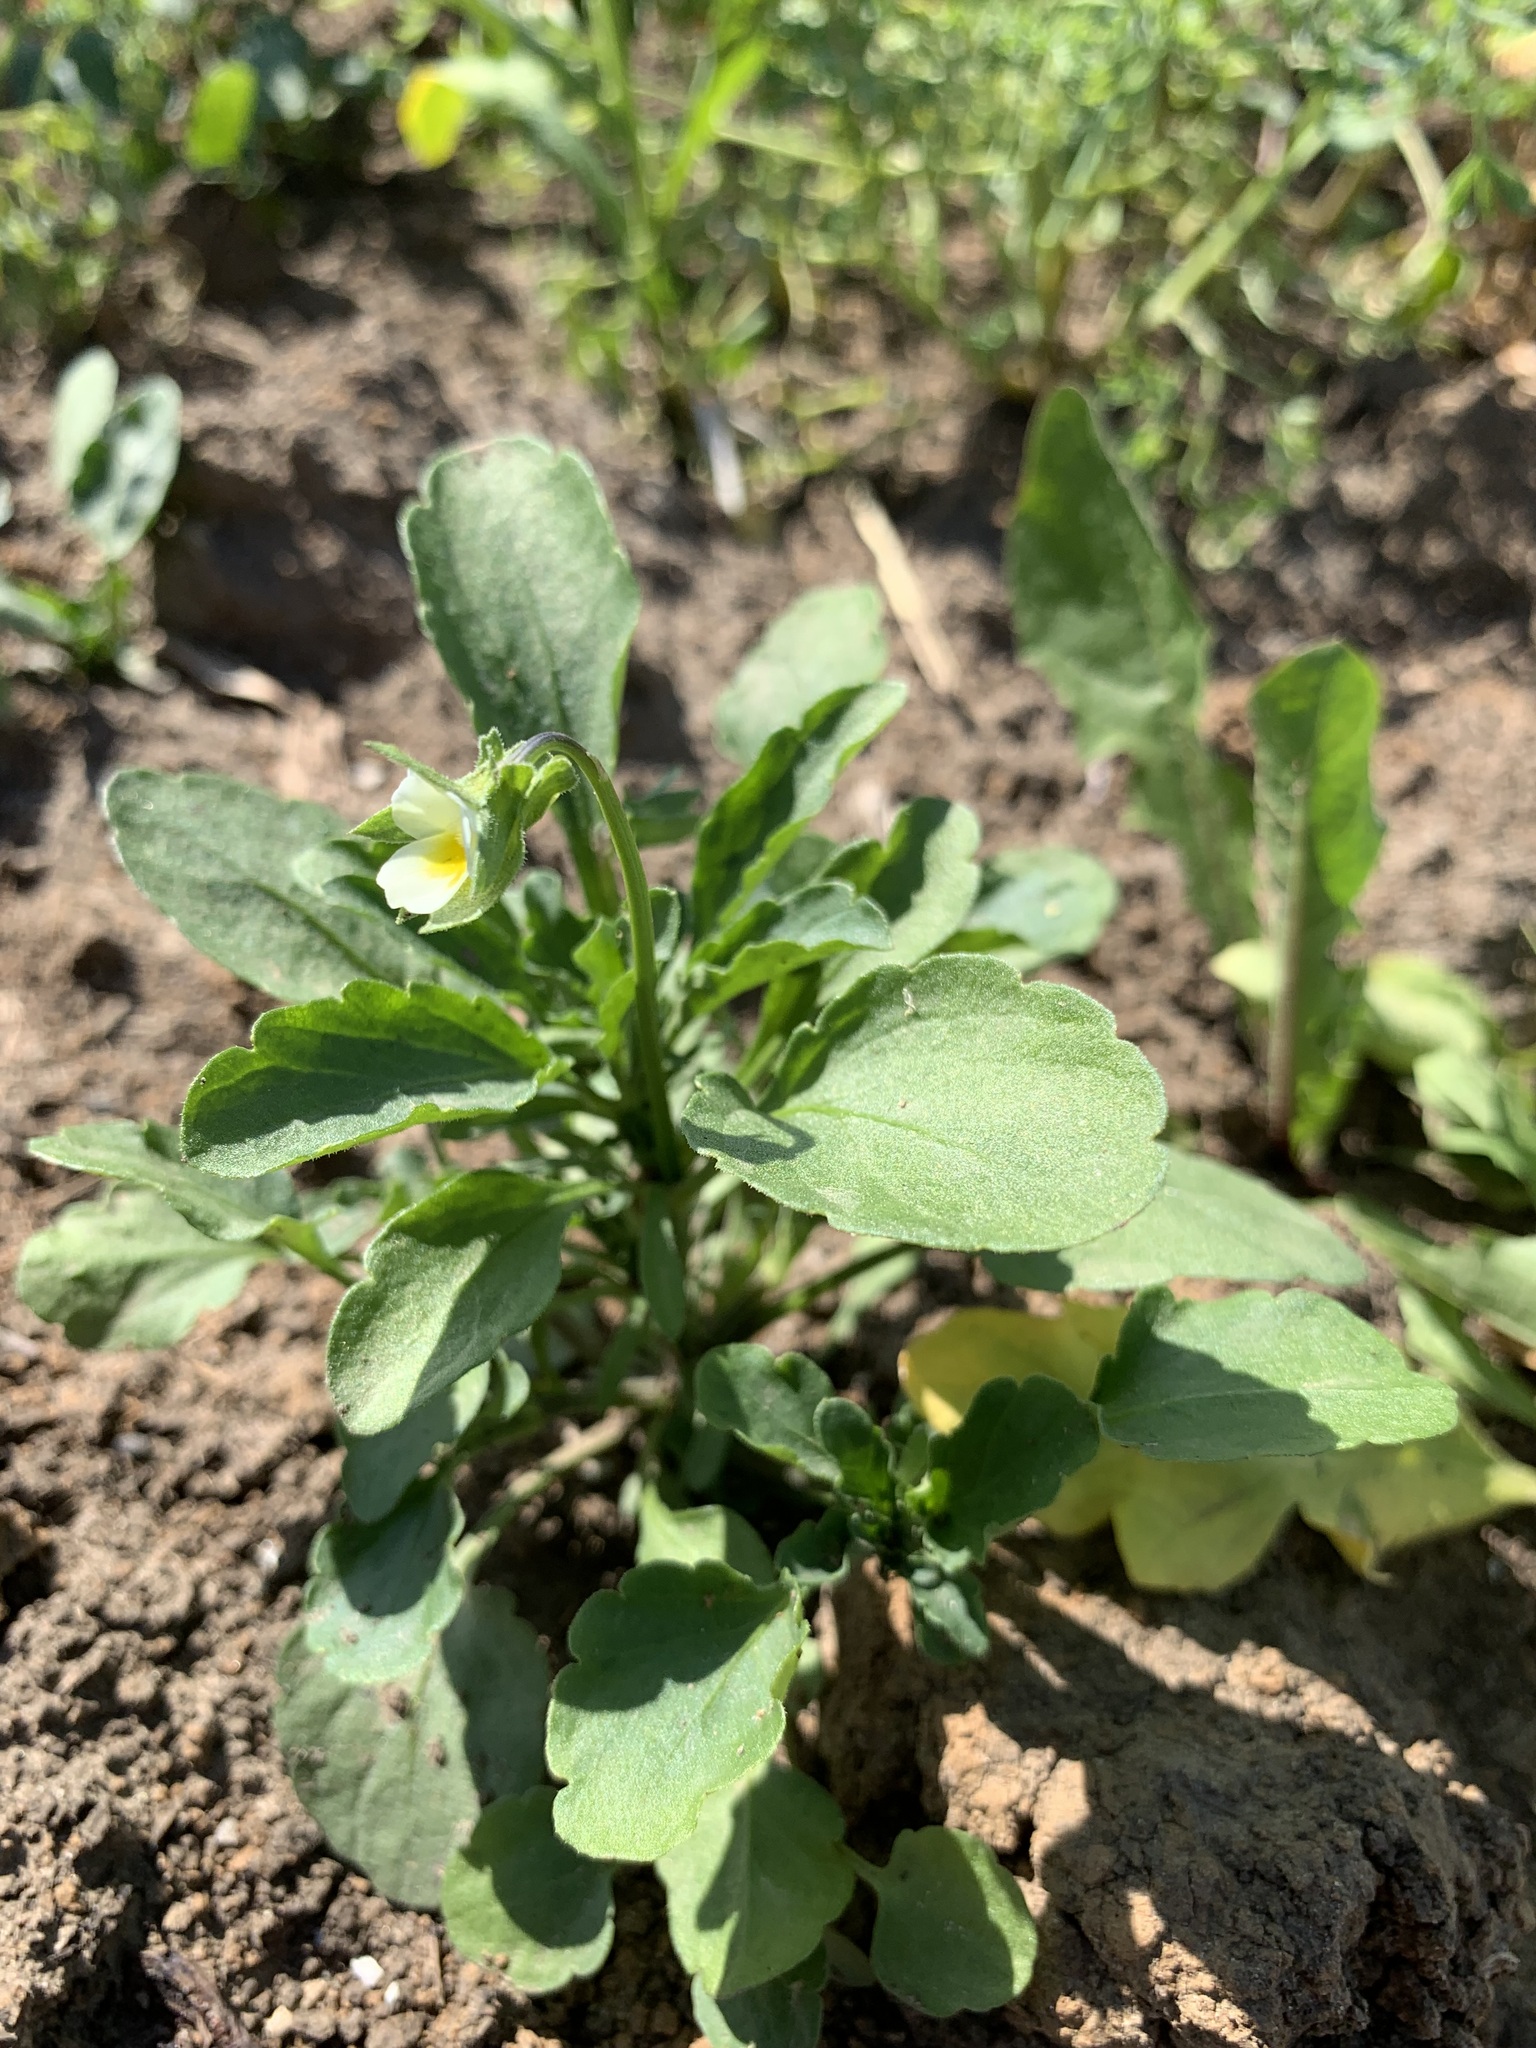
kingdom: Plantae
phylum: Tracheophyta
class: Magnoliopsida
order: Malpighiales
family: Violaceae
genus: Viola
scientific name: Viola arvensis
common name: Field pansy
